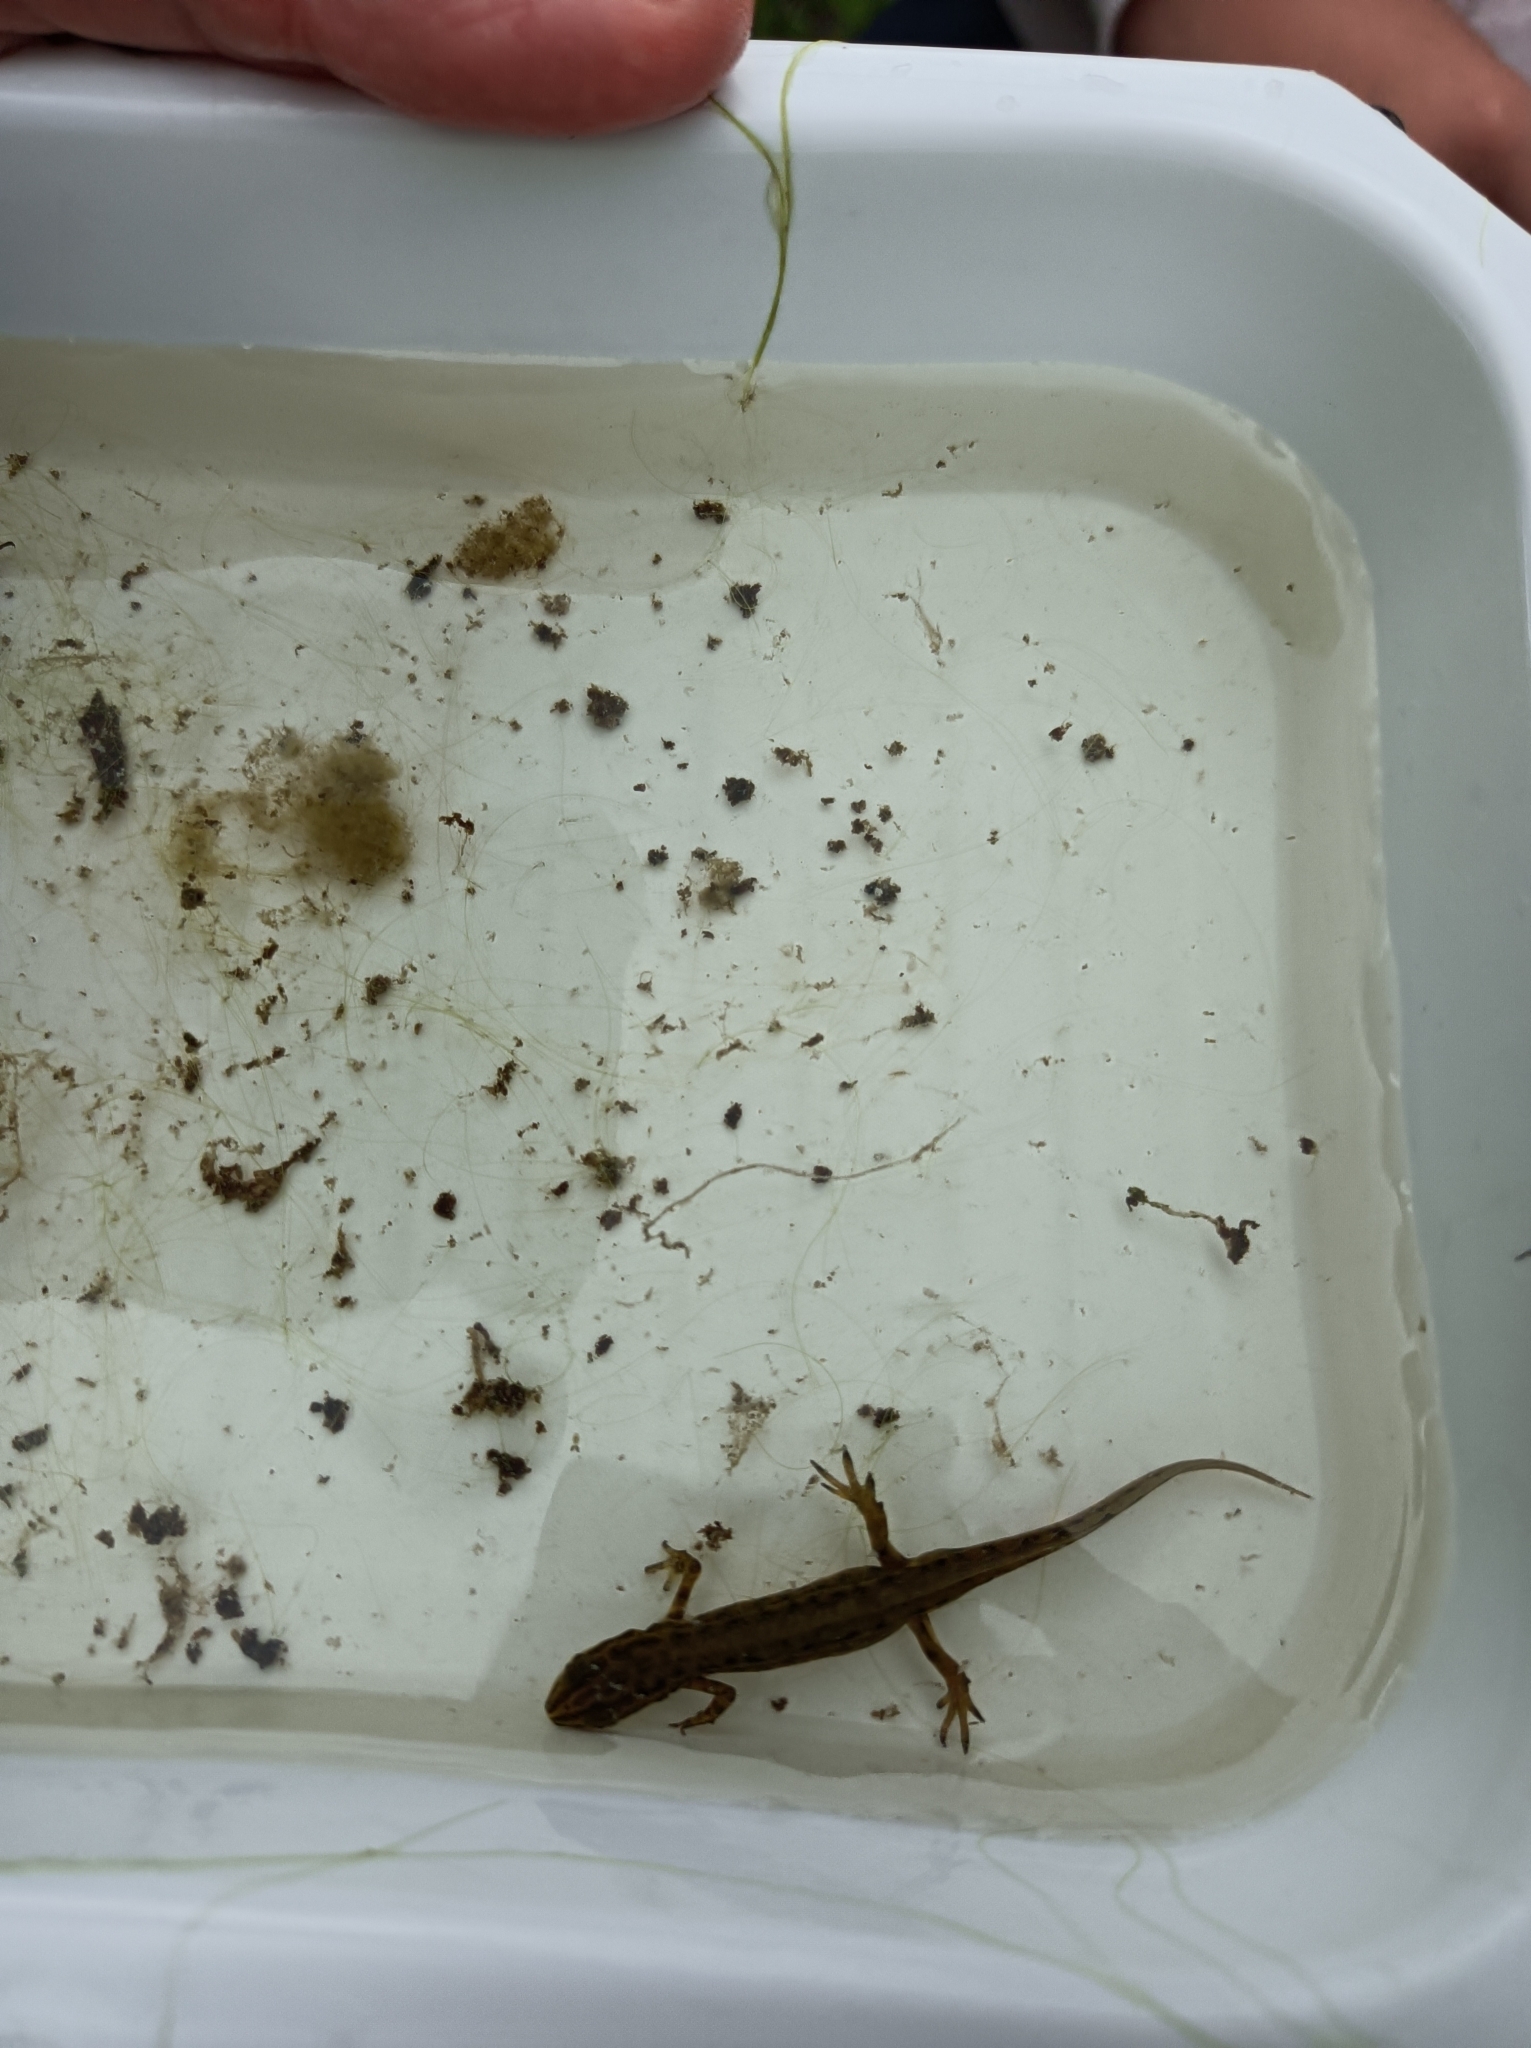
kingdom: Animalia
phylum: Chordata
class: Amphibia
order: Caudata
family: Salamandridae
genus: Lissotriton
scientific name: Lissotriton vulgaris
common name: Smooth newt
